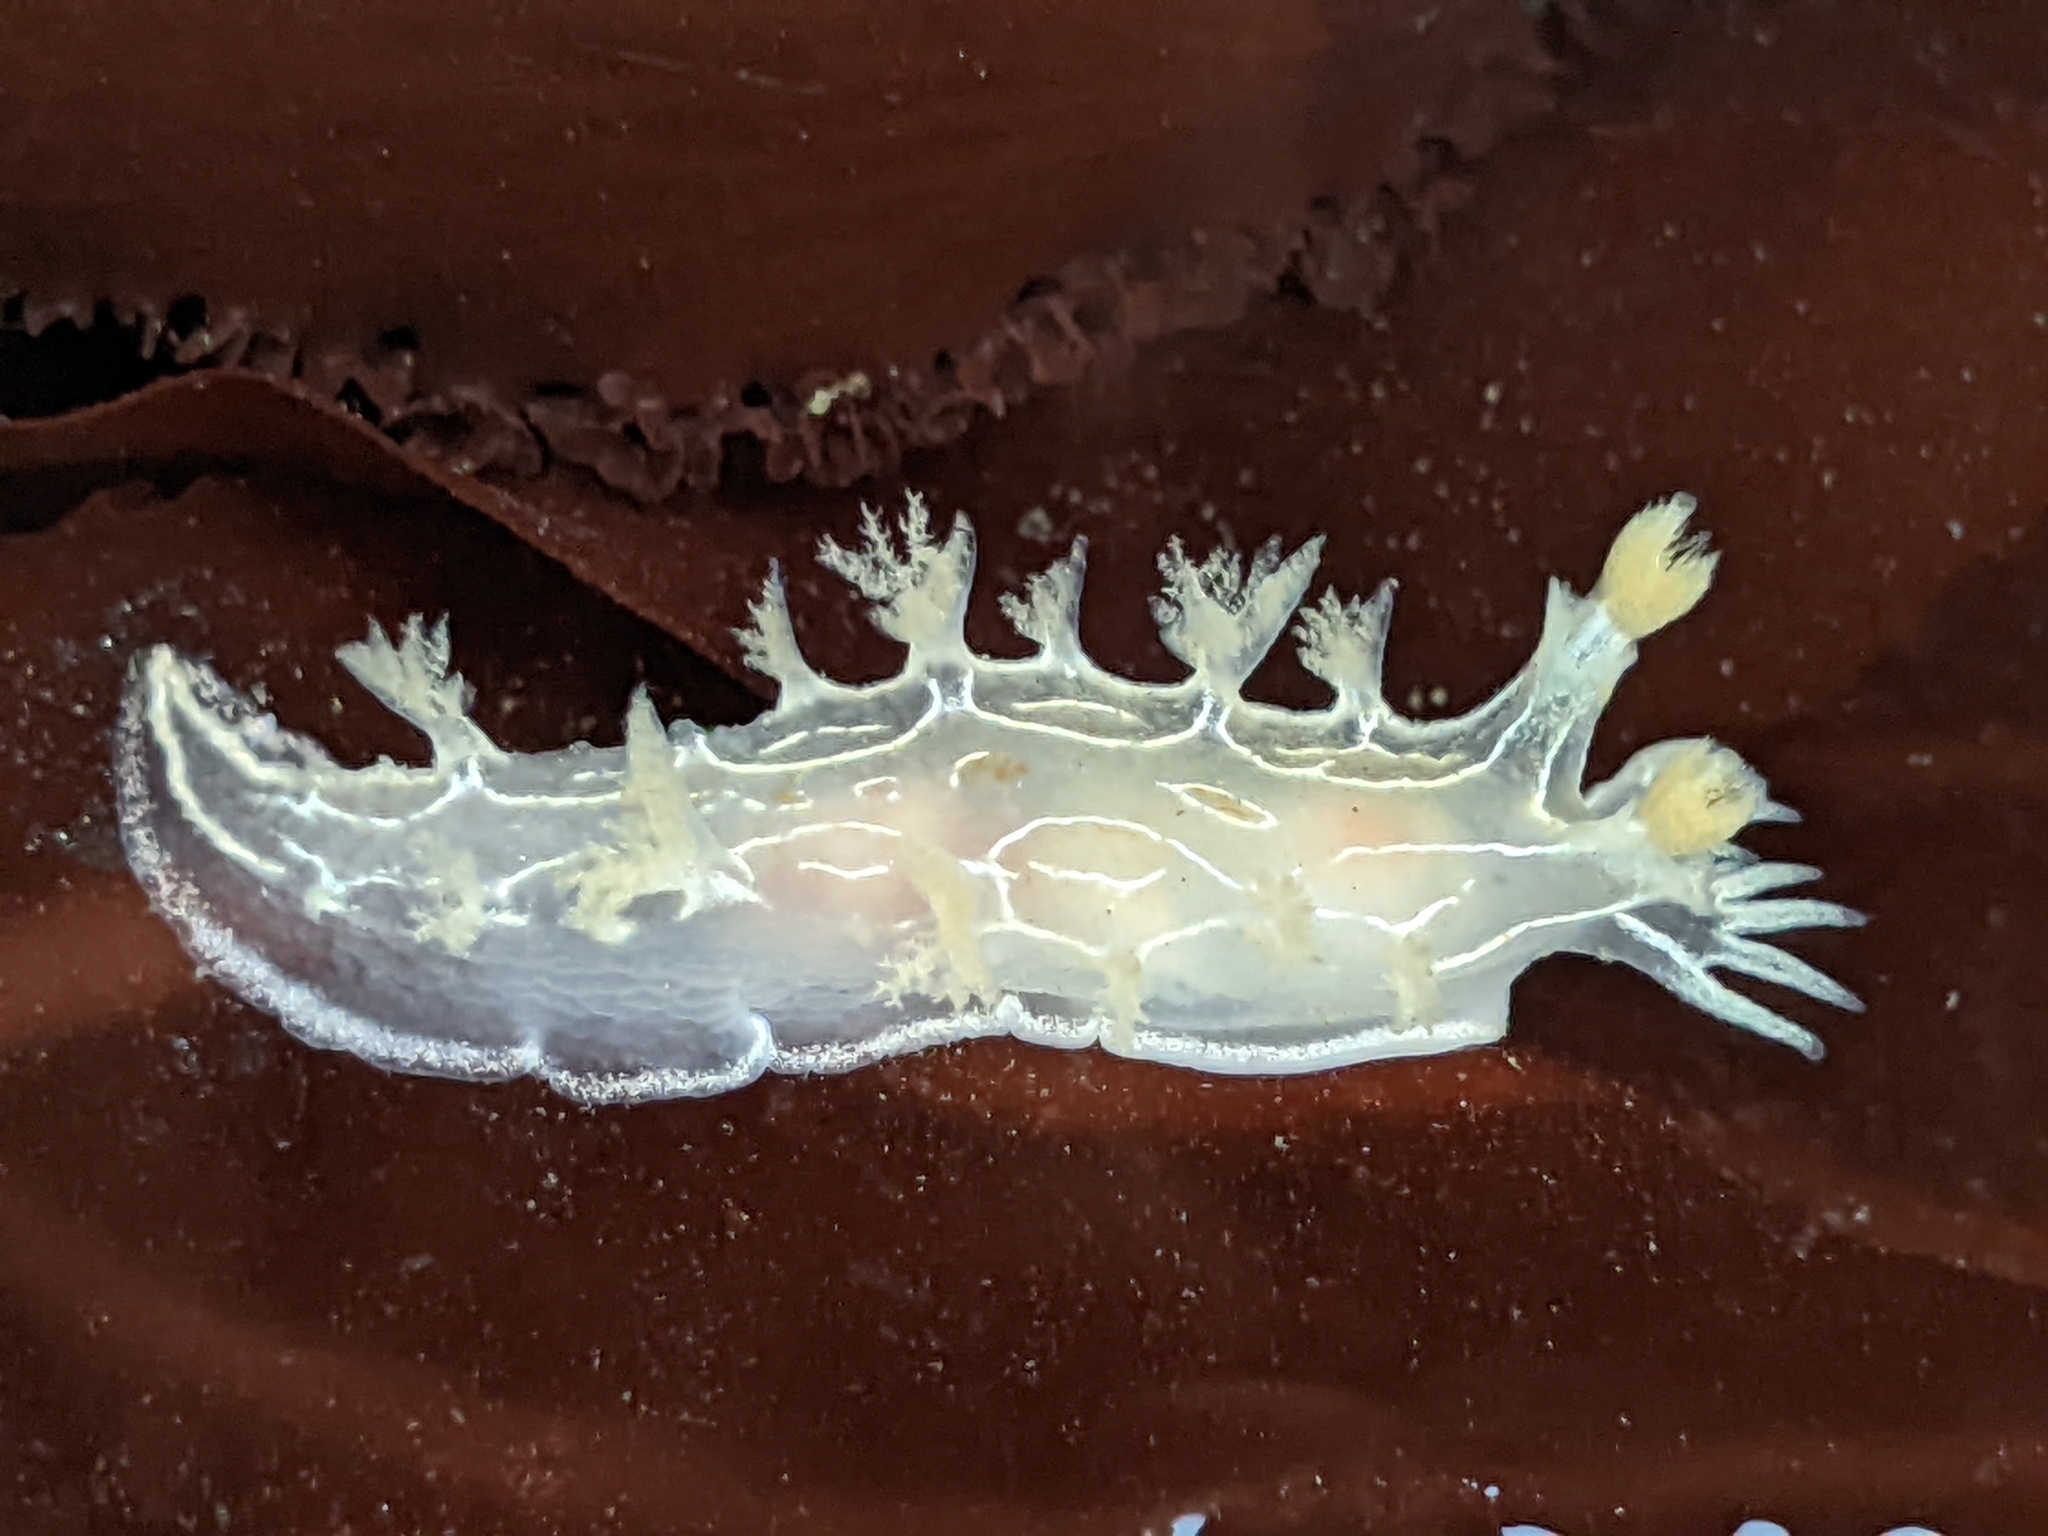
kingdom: Animalia
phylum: Mollusca
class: Gastropoda
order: Nudibranchia
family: Tritoniidae
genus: Tritonia
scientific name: Tritonia festiva
